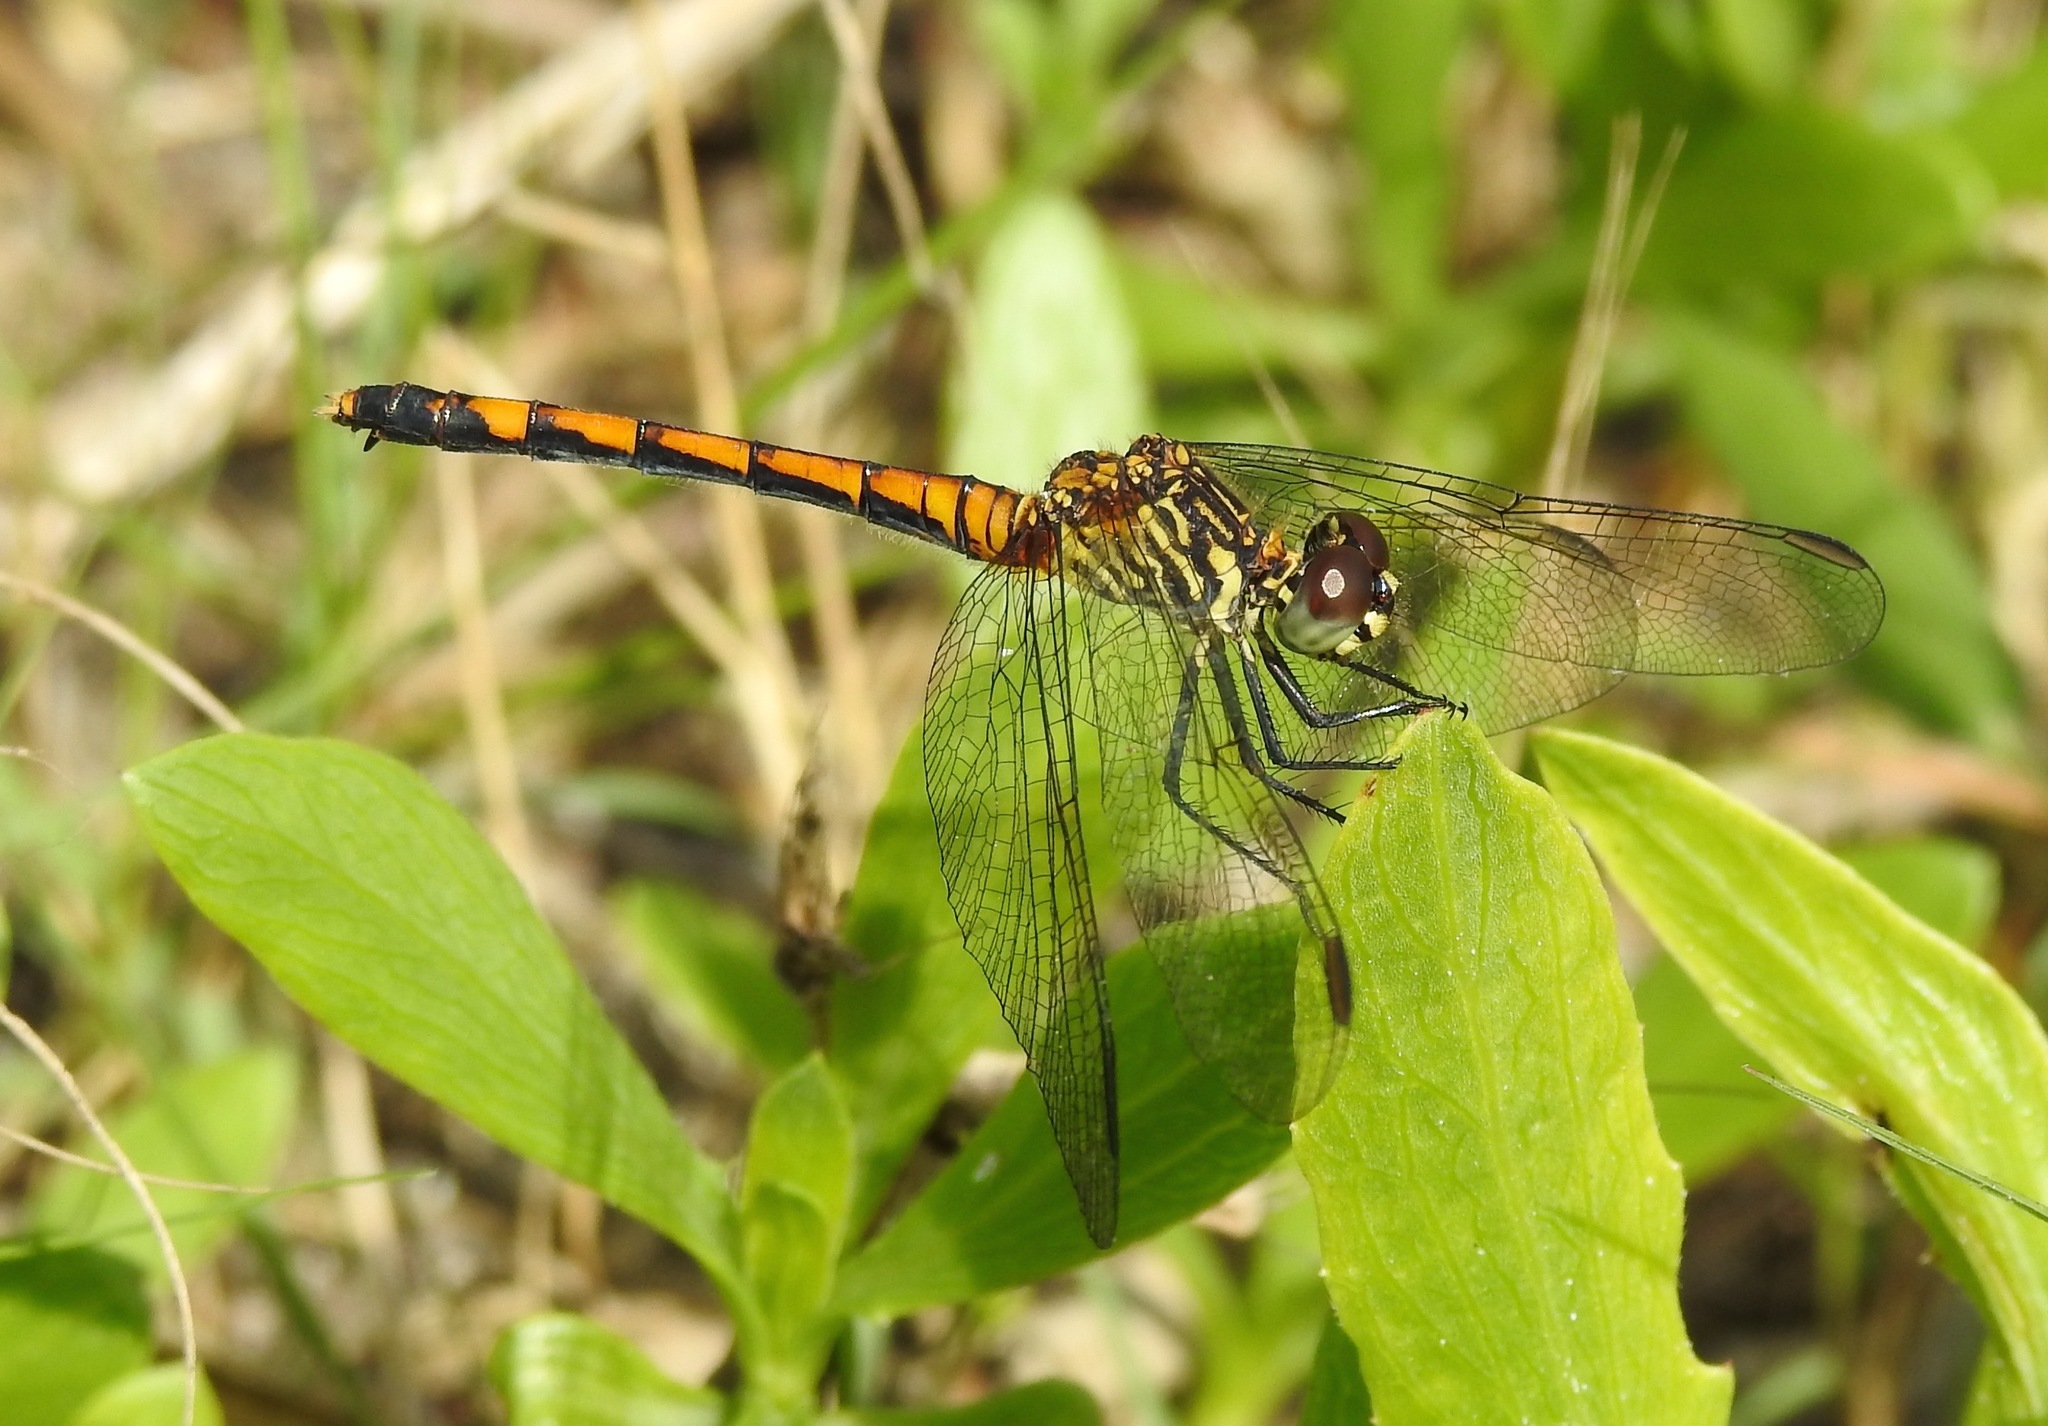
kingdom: Animalia
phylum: Arthropoda
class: Insecta
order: Odonata
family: Libellulidae
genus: Erythrodiplax
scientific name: Erythrodiplax berenice
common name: Seaside dragonlet
